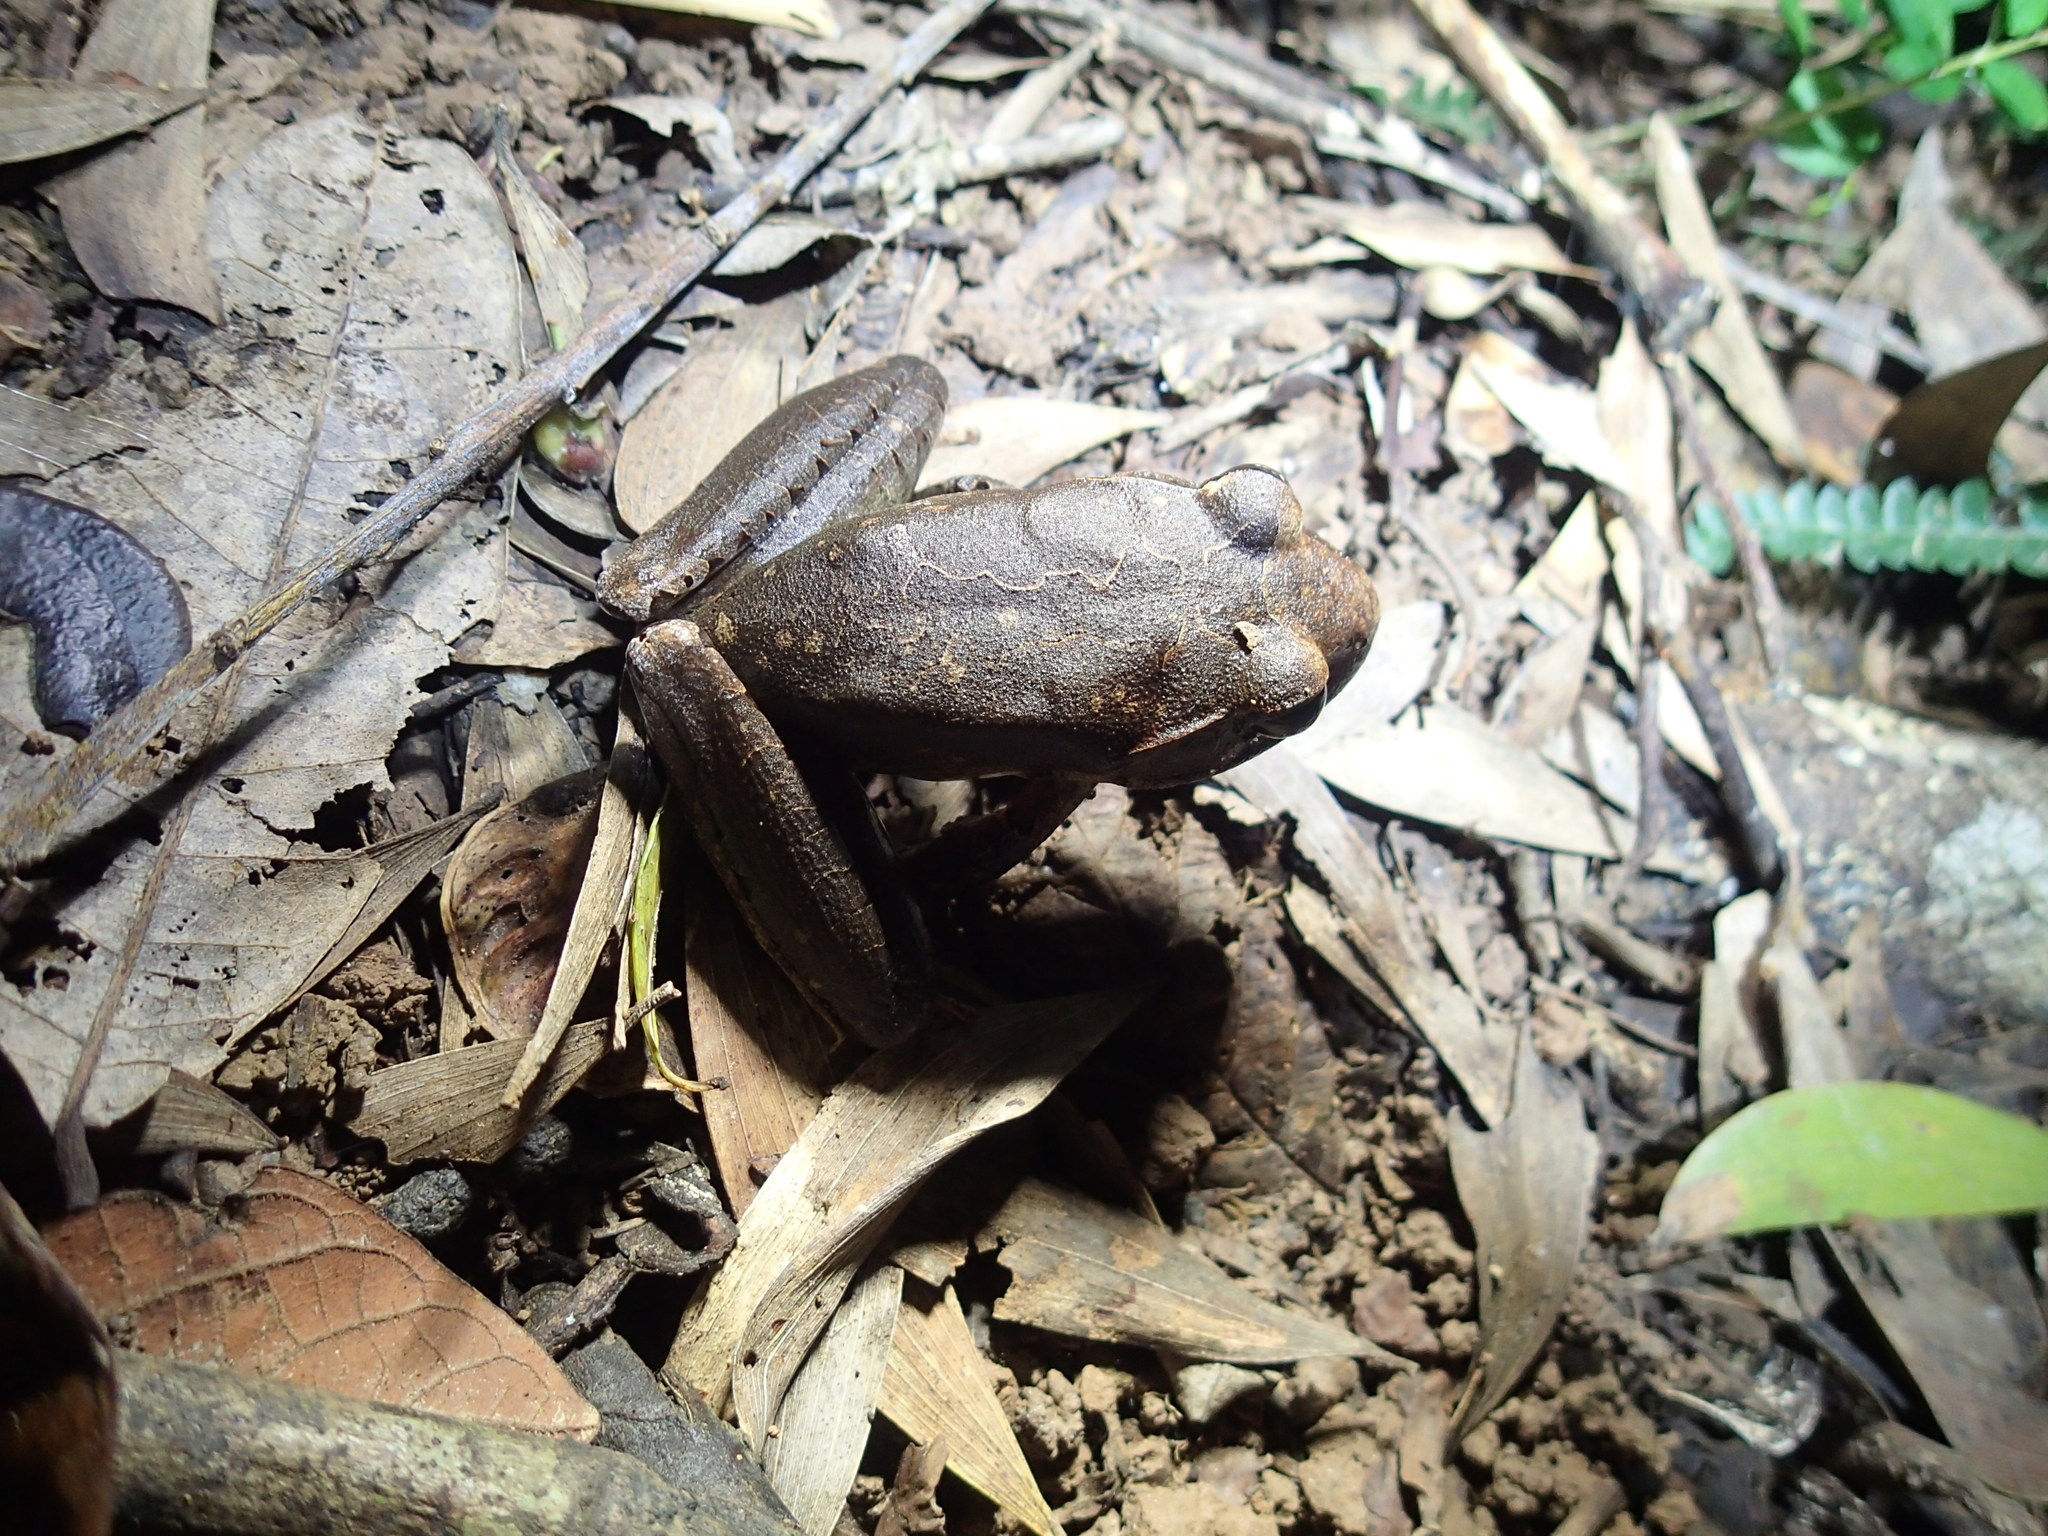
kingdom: Animalia
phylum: Chordata
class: Amphibia
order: Anura
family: Myobatrachidae
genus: Mixophyes
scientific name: Mixophyes schevilli
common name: Northern barred frog
